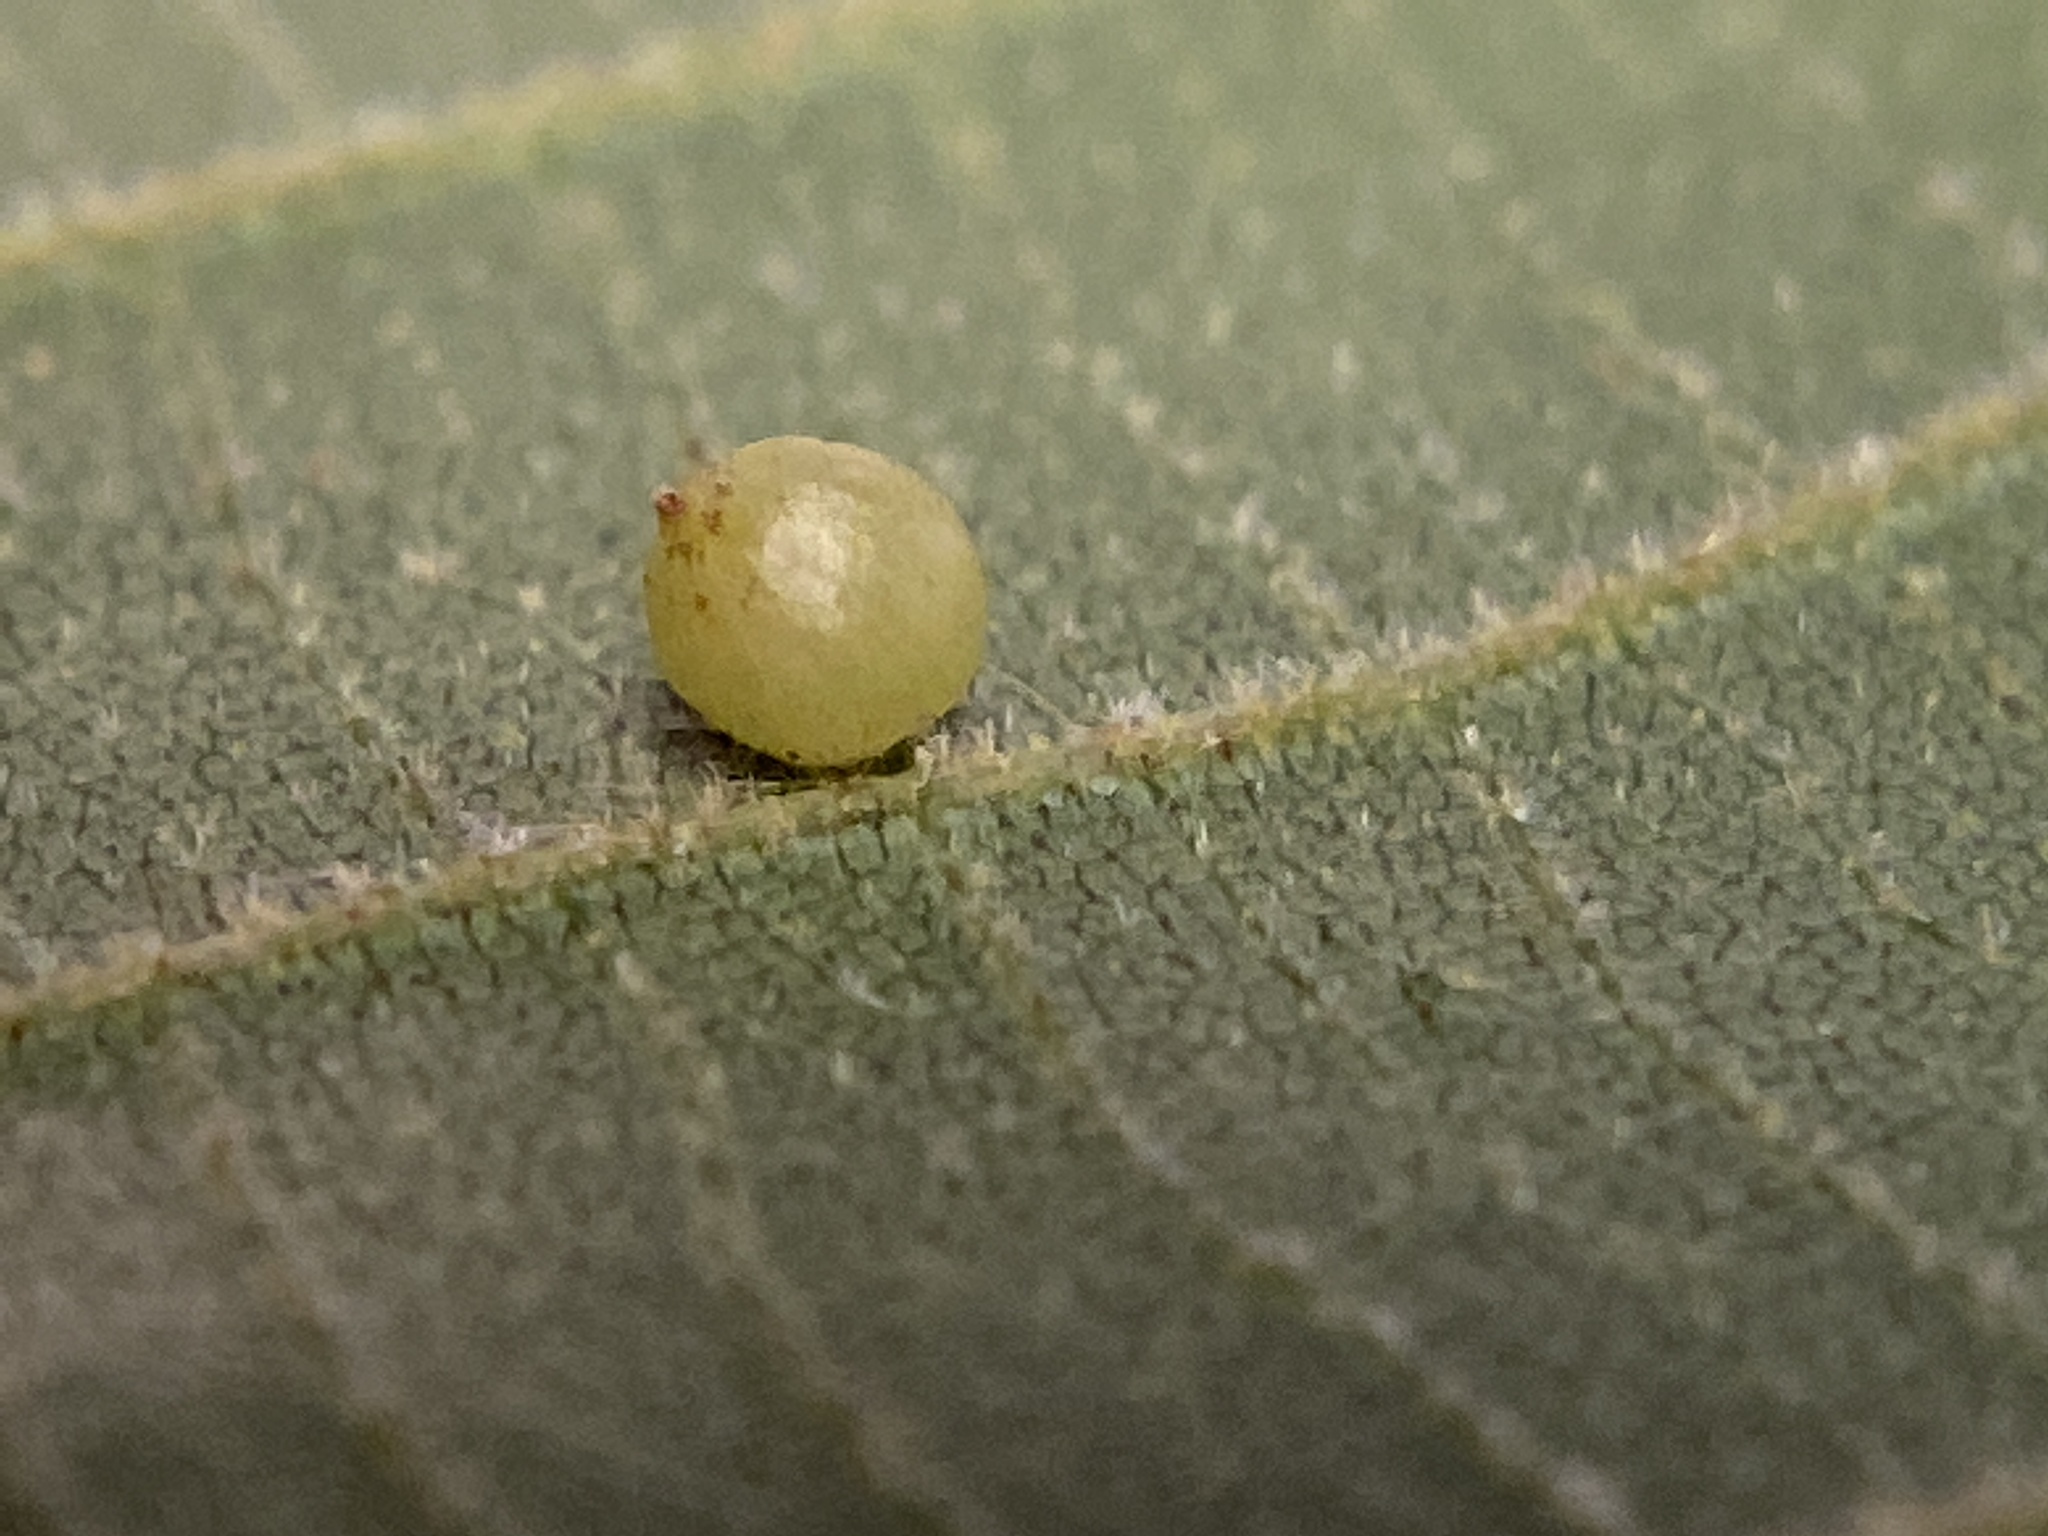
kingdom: Animalia
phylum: Arthropoda
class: Insecta
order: Diptera
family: Cecidomyiidae
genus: Caryomyia
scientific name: Caryomyia leviglobus
